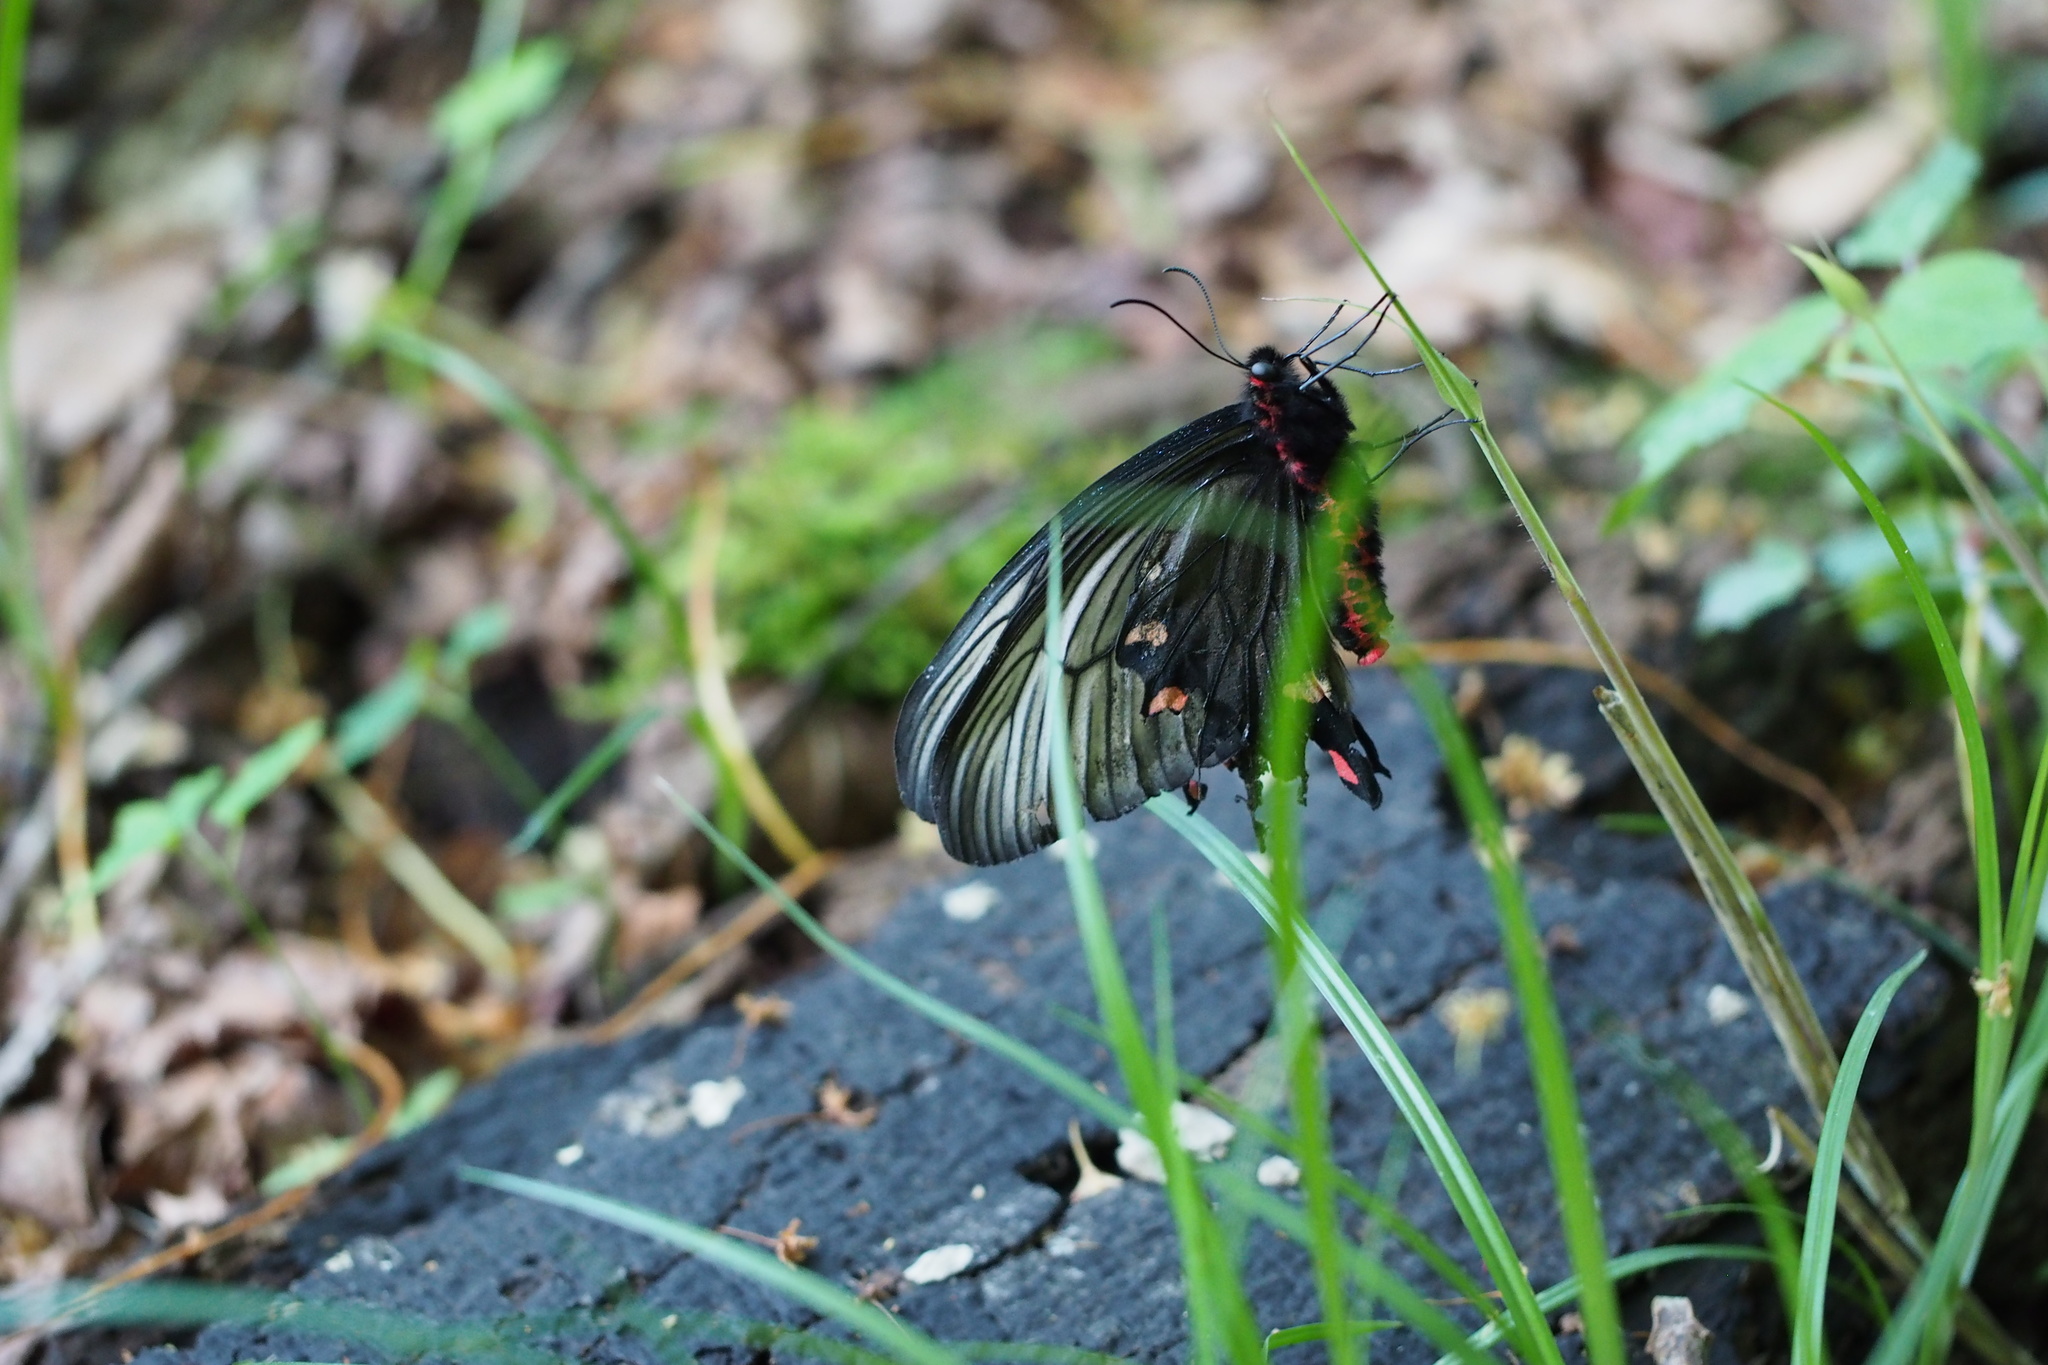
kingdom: Animalia
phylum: Arthropoda
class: Insecta
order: Lepidoptera
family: Papilionidae
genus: Byasa
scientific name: Byasa alcinous
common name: Chinese windmill
